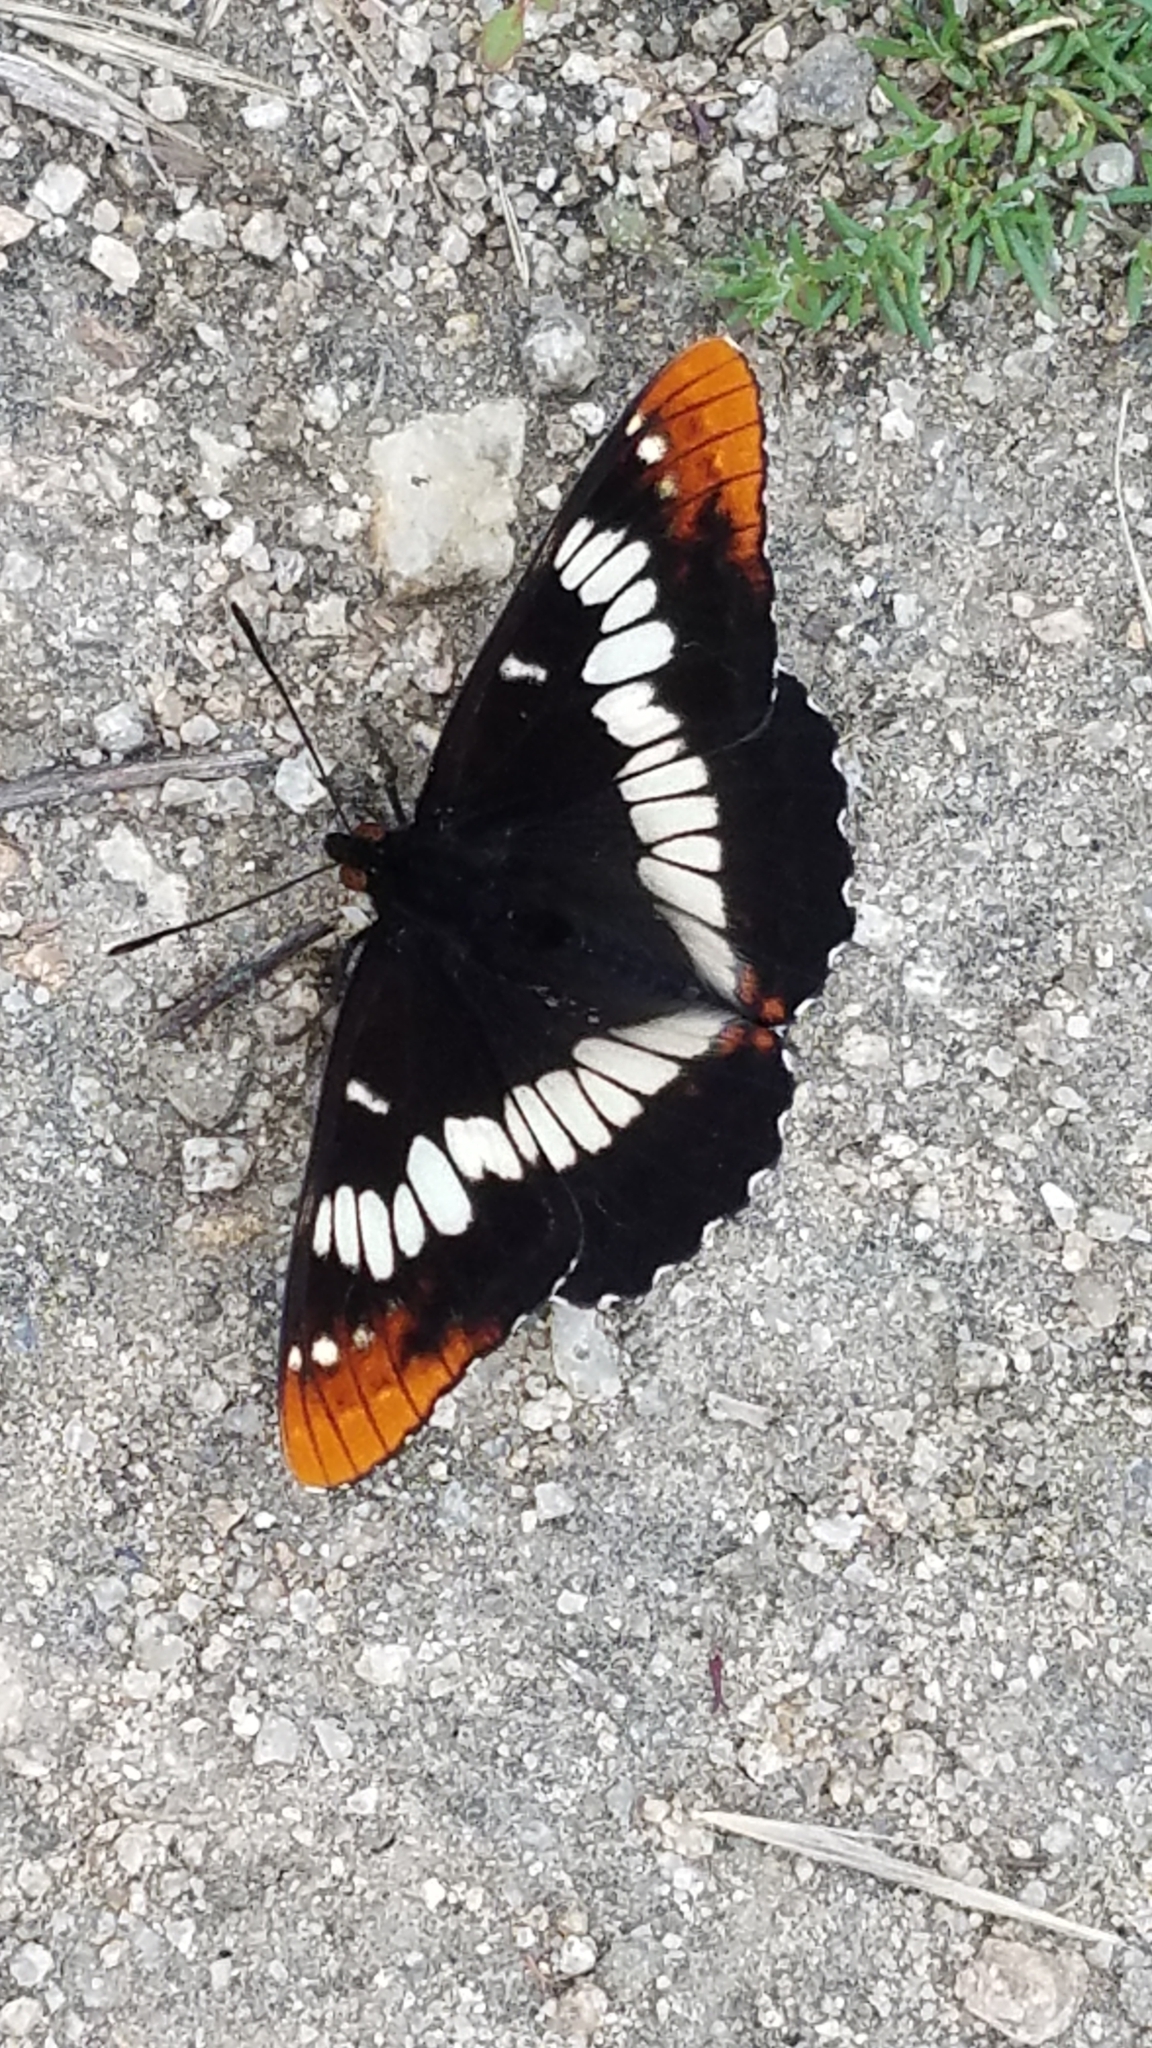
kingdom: Animalia
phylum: Arthropoda
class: Insecta
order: Lepidoptera
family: Nymphalidae
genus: Limenitis
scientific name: Limenitis lorquini
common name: Lorquin's admiral
